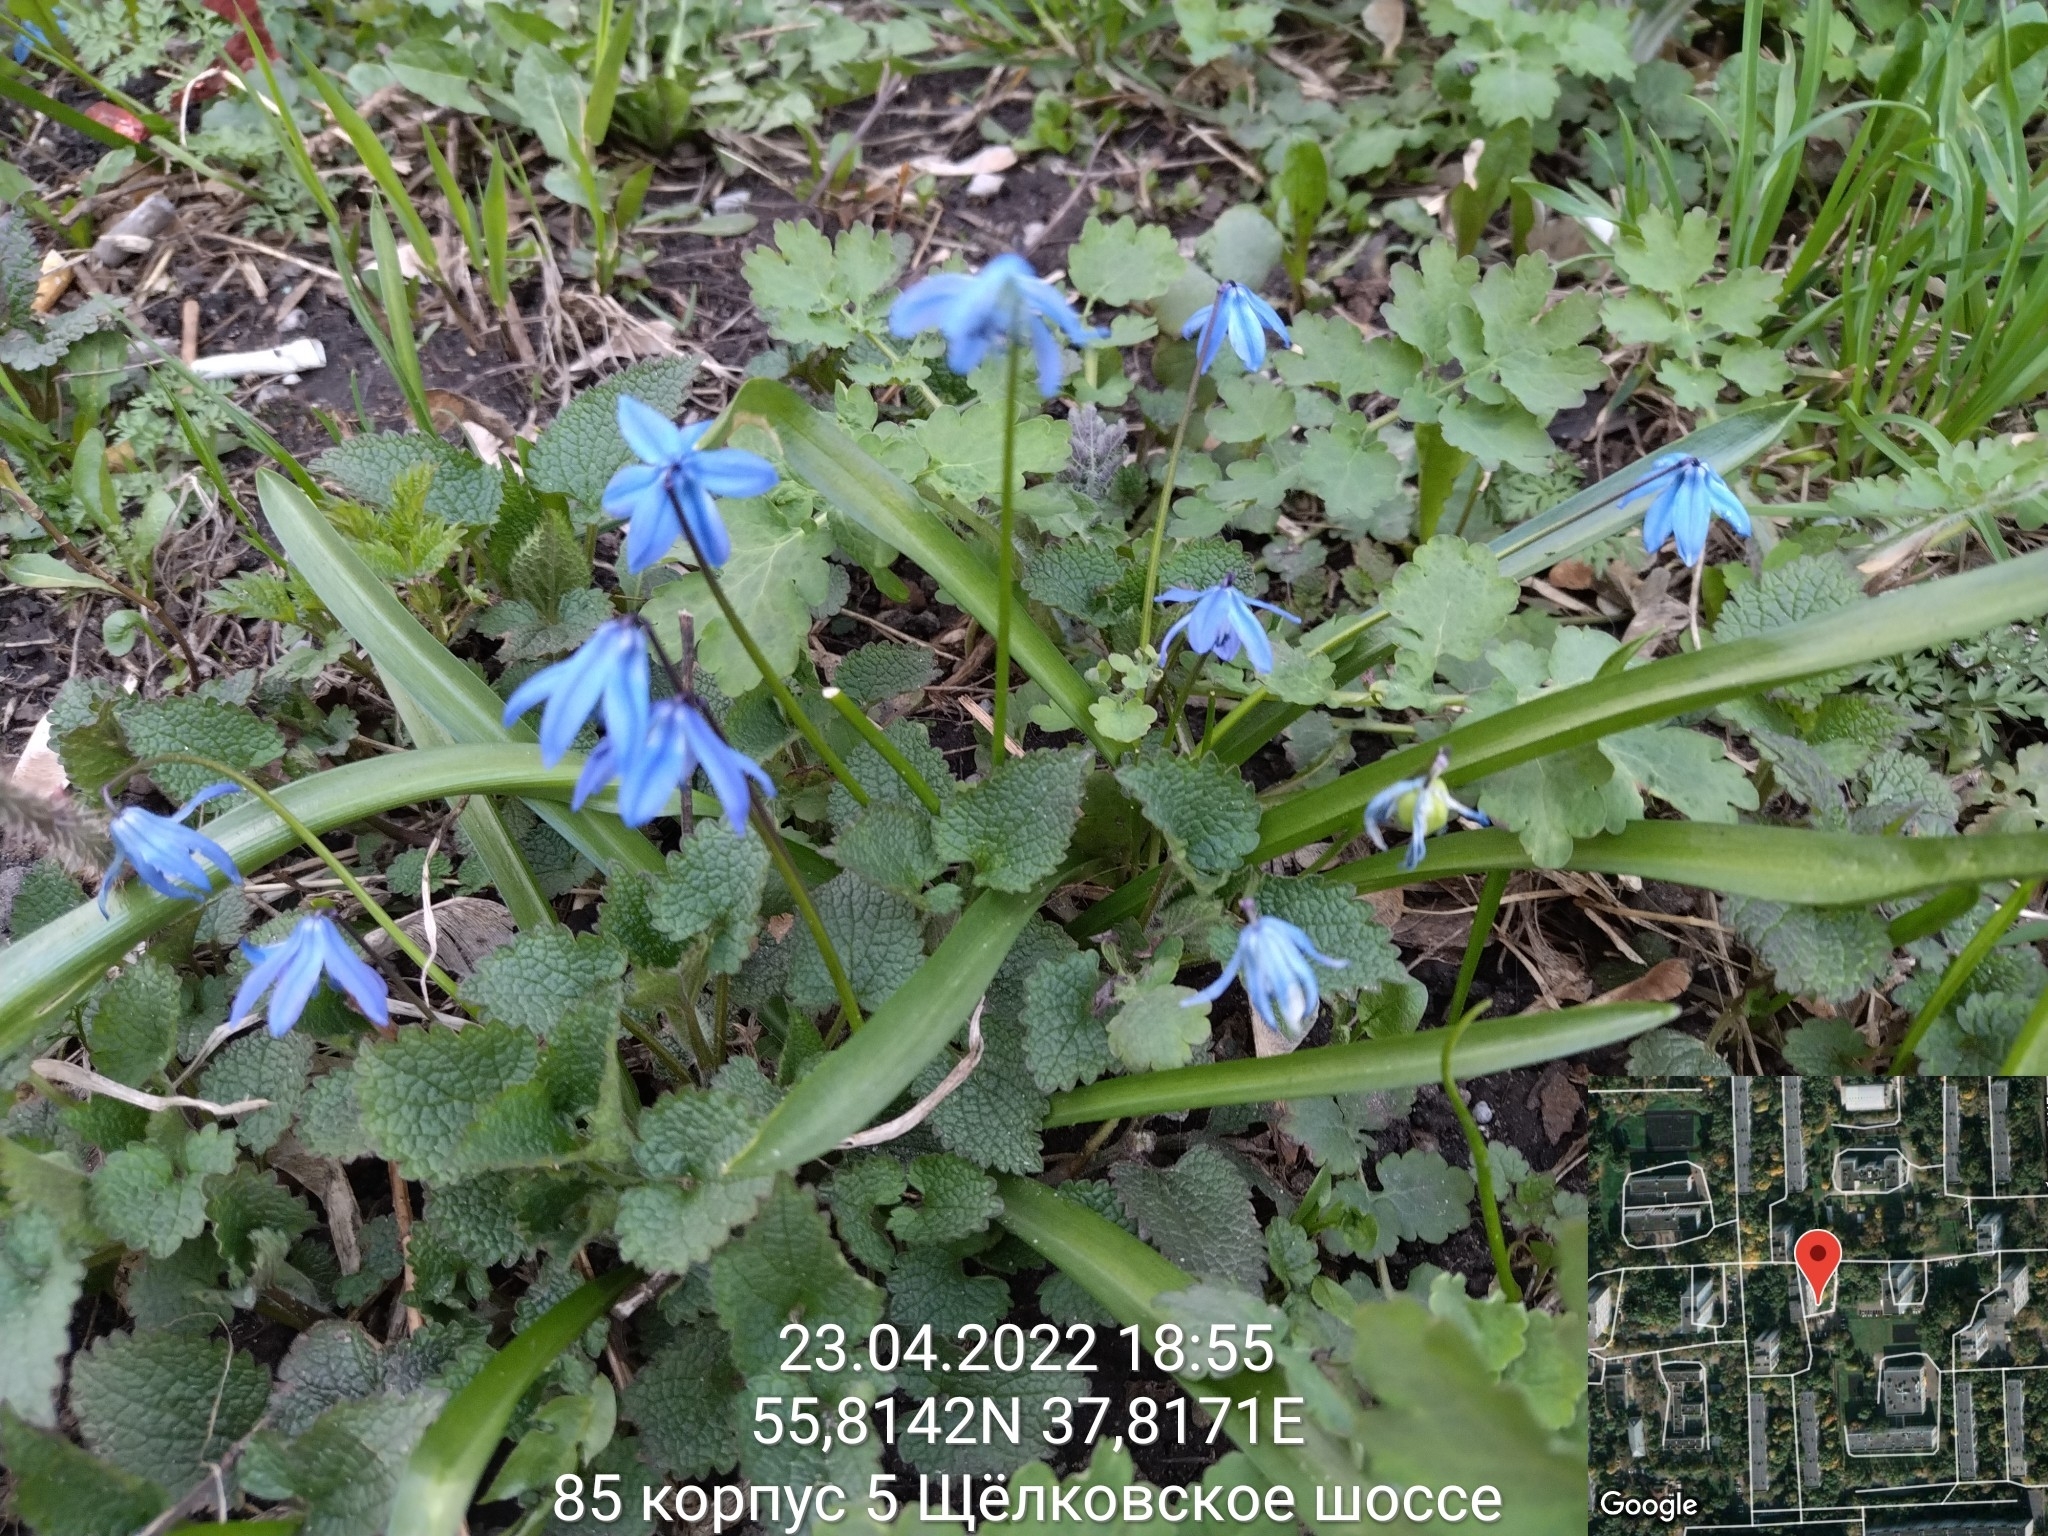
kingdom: Plantae
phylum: Tracheophyta
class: Liliopsida
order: Asparagales
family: Asparagaceae
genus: Scilla
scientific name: Scilla siberica
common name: Siberian squill
